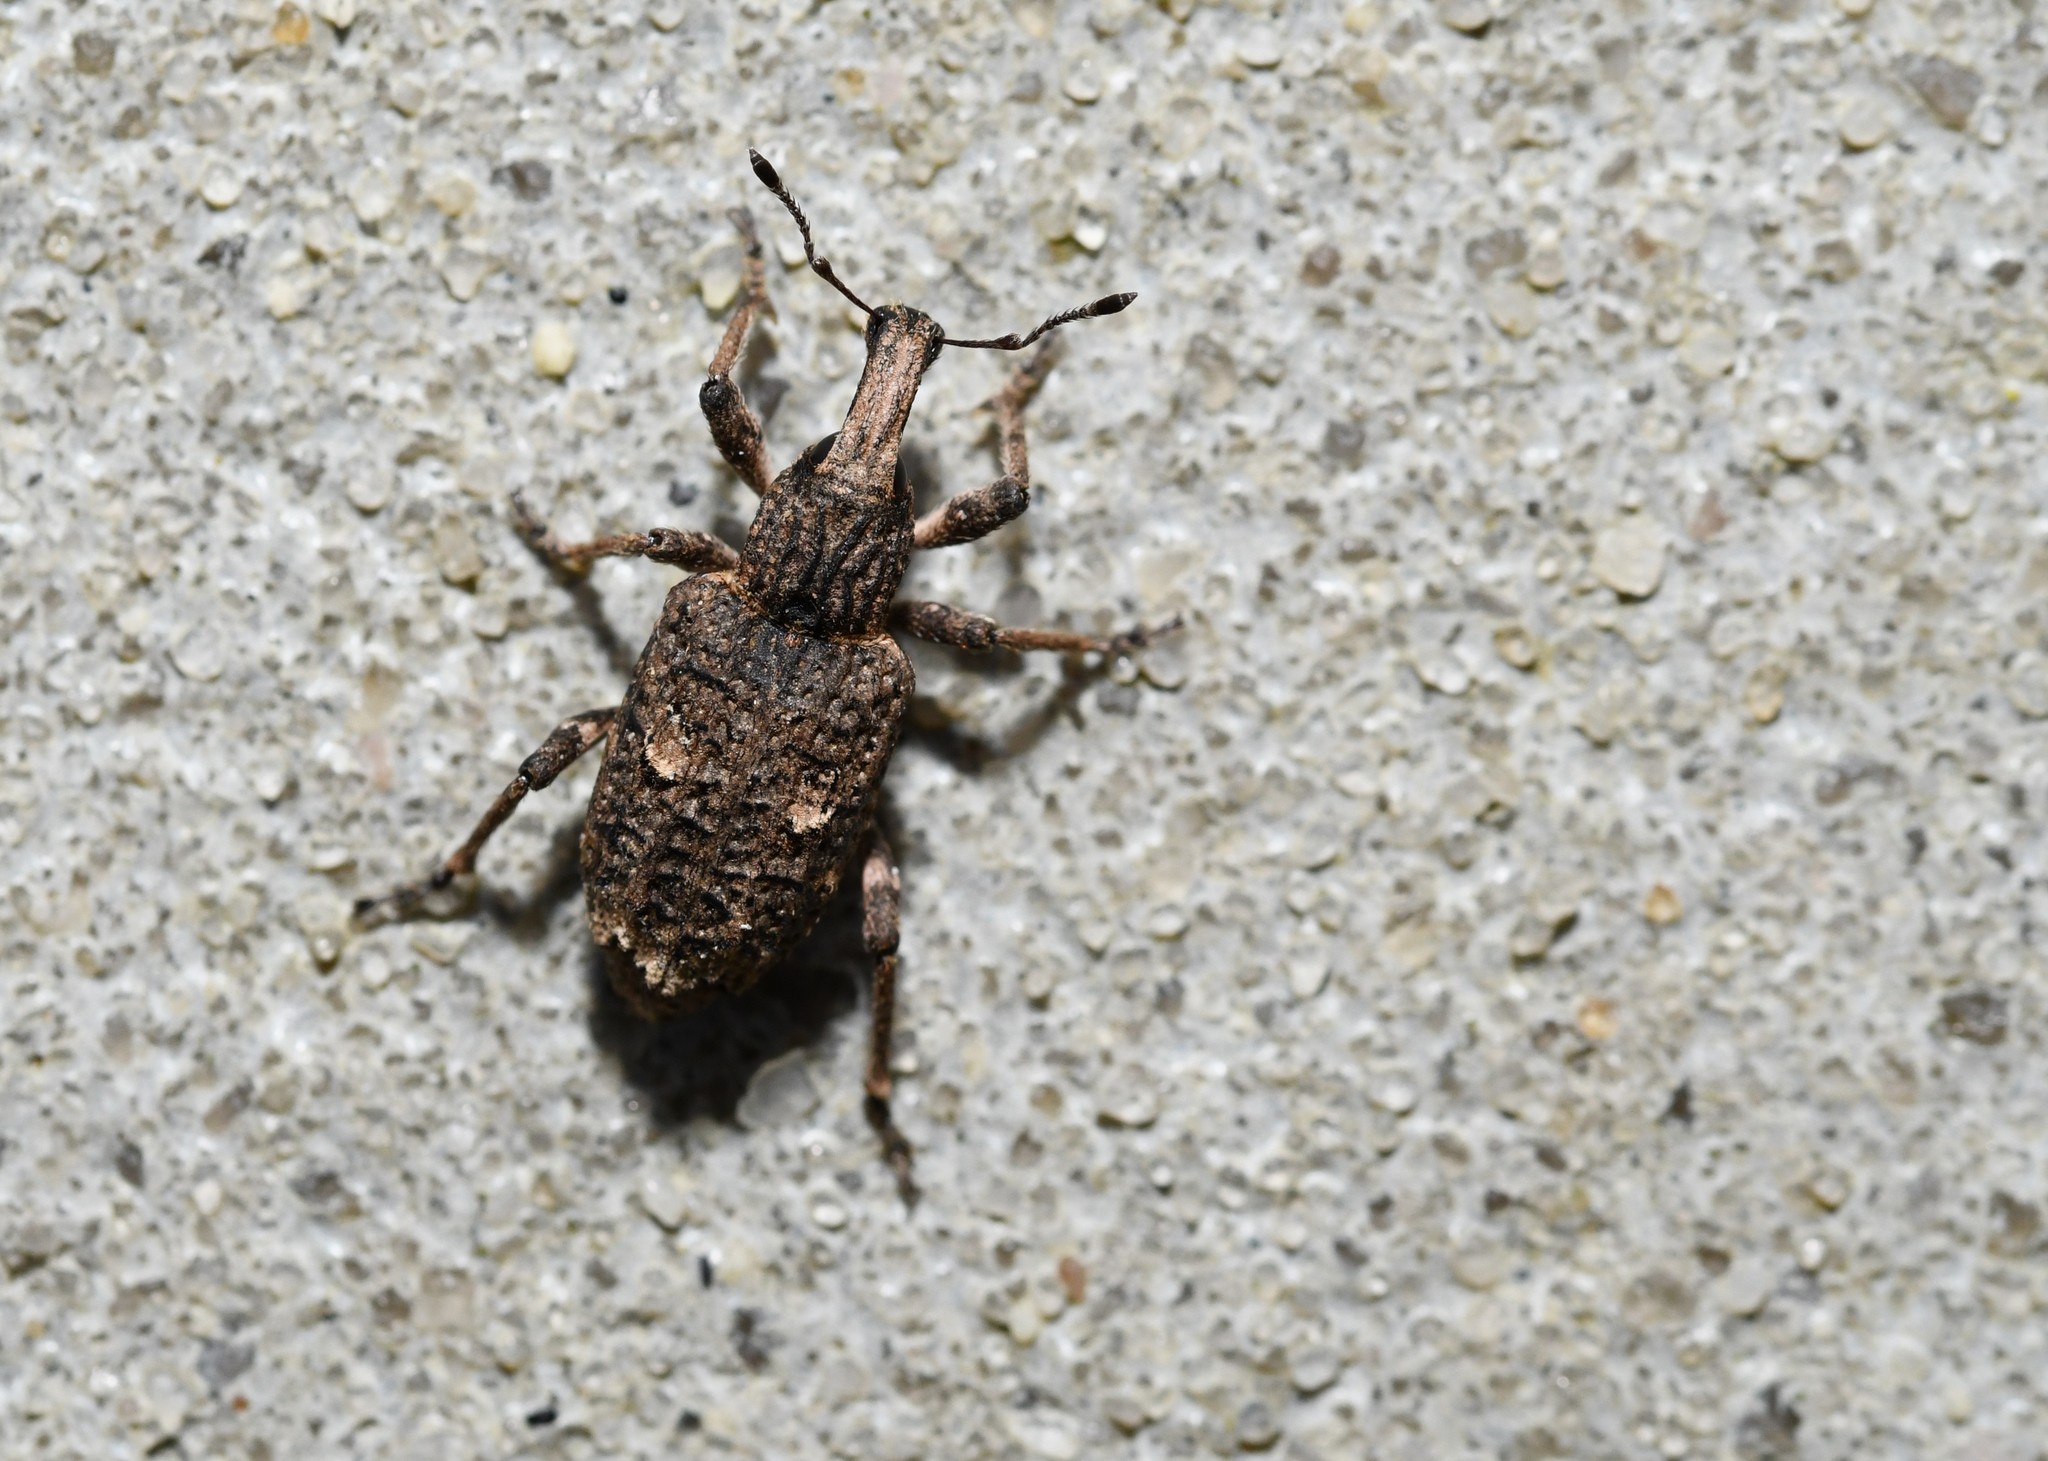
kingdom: Animalia
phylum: Arthropoda
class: Insecta
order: Coleoptera
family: Curculionidae
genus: Rhytideres
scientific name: Rhytideres plicatus
